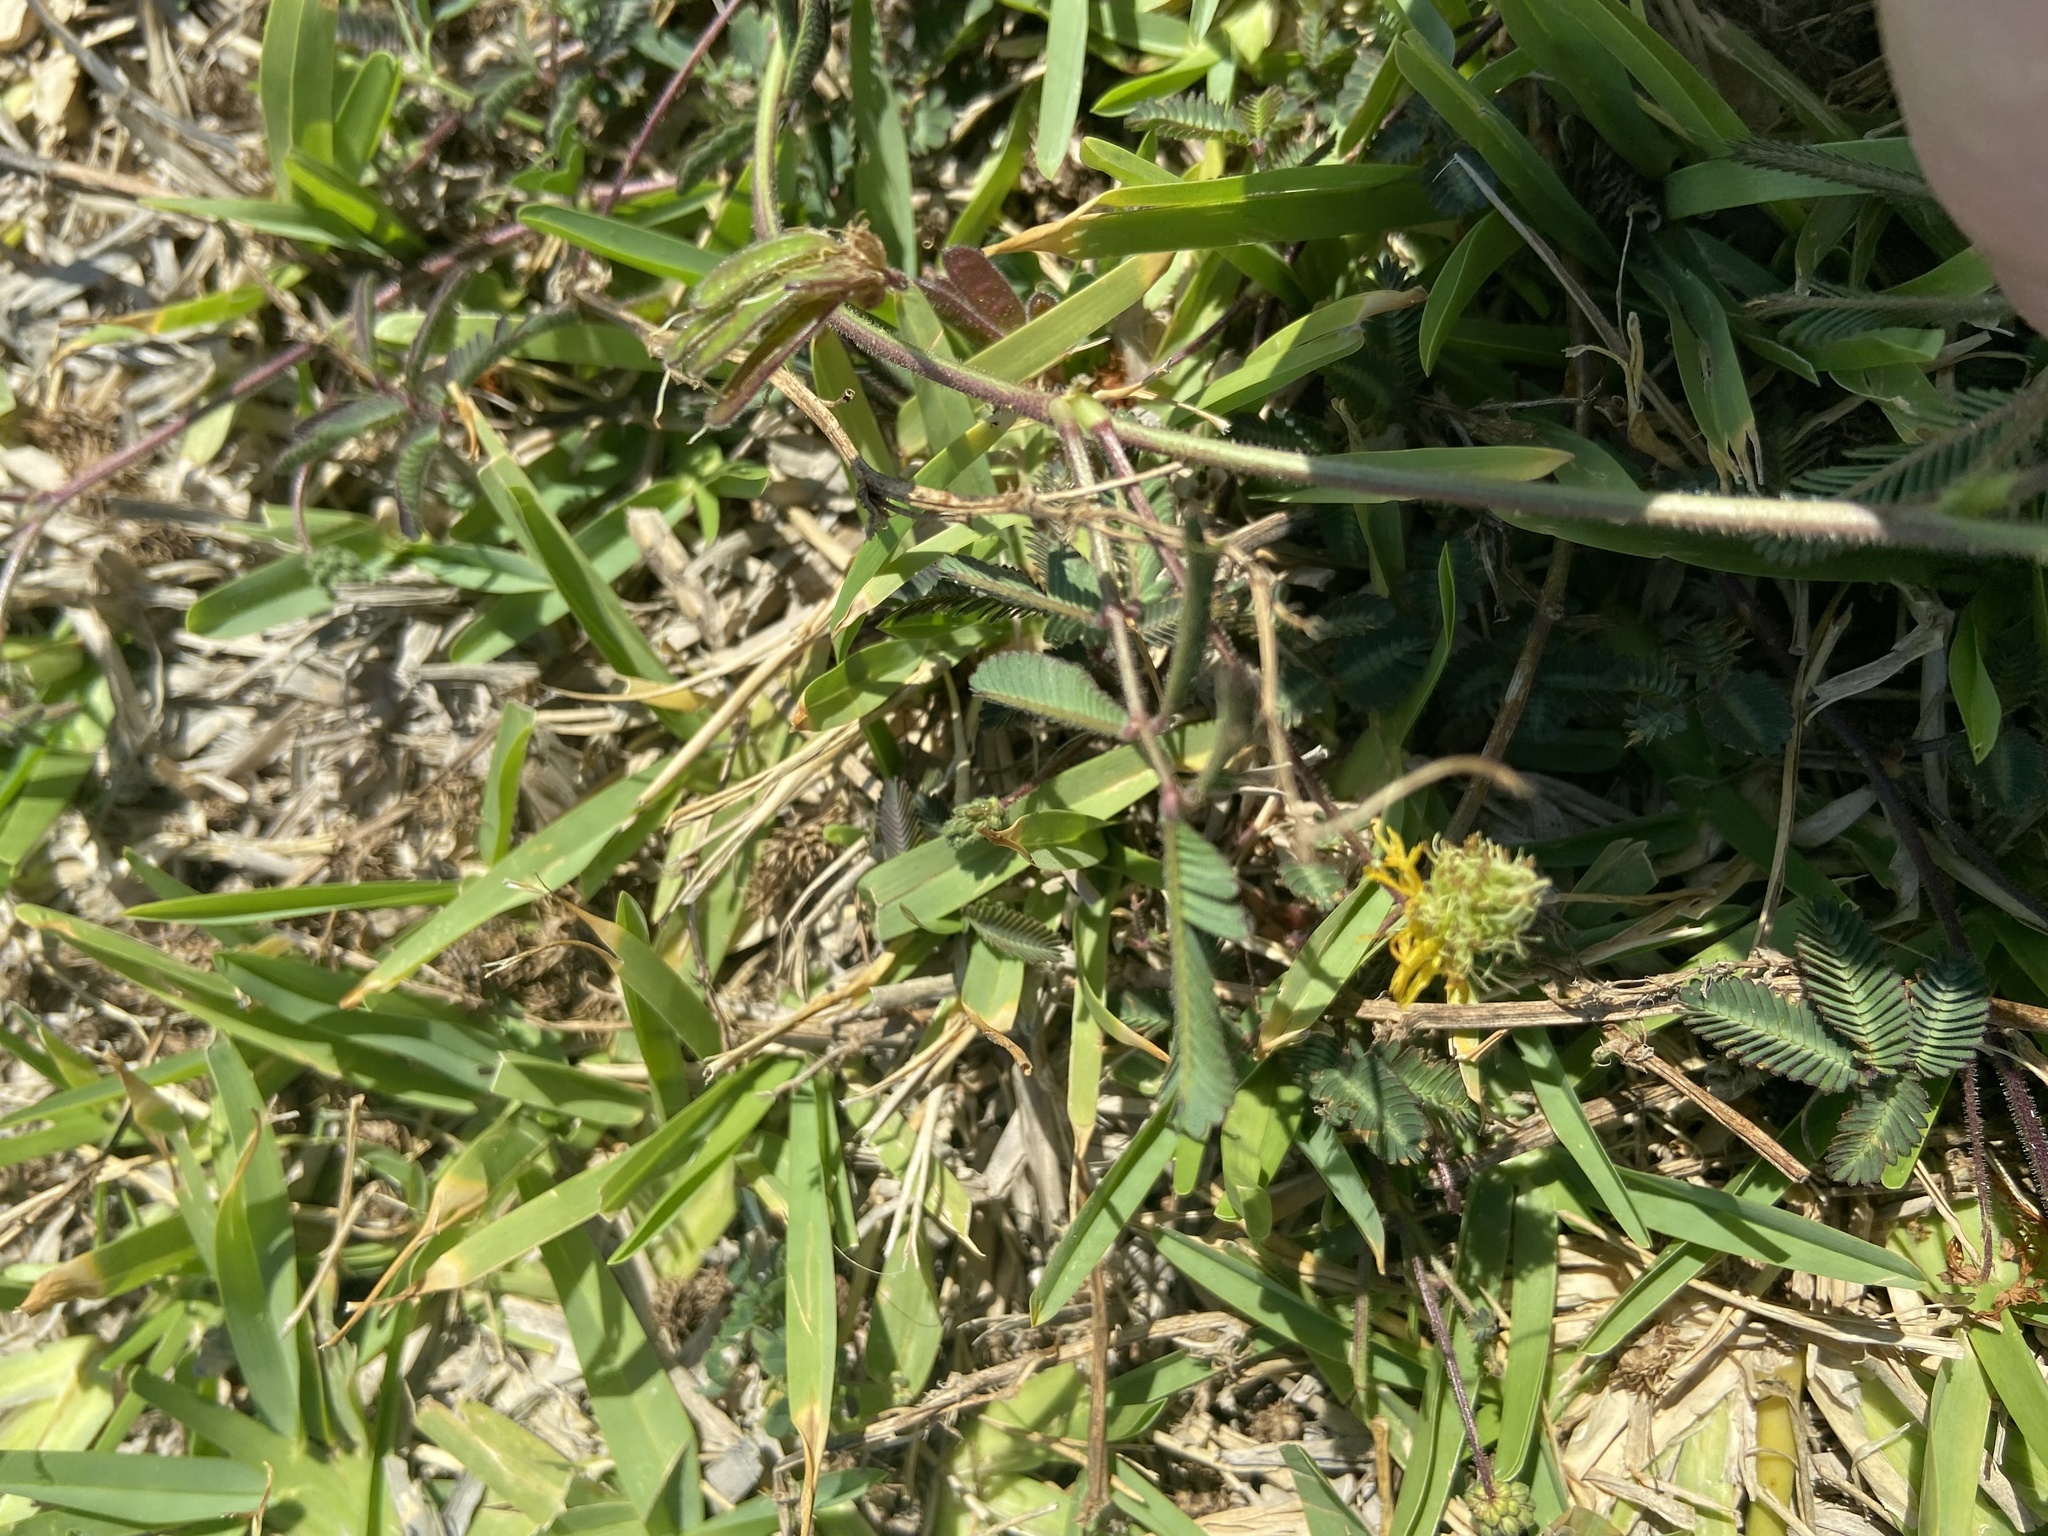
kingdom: Plantae
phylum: Tracheophyta
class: Magnoliopsida
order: Fabales
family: Fabaceae
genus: Neptunia
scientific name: Neptunia pubescens
